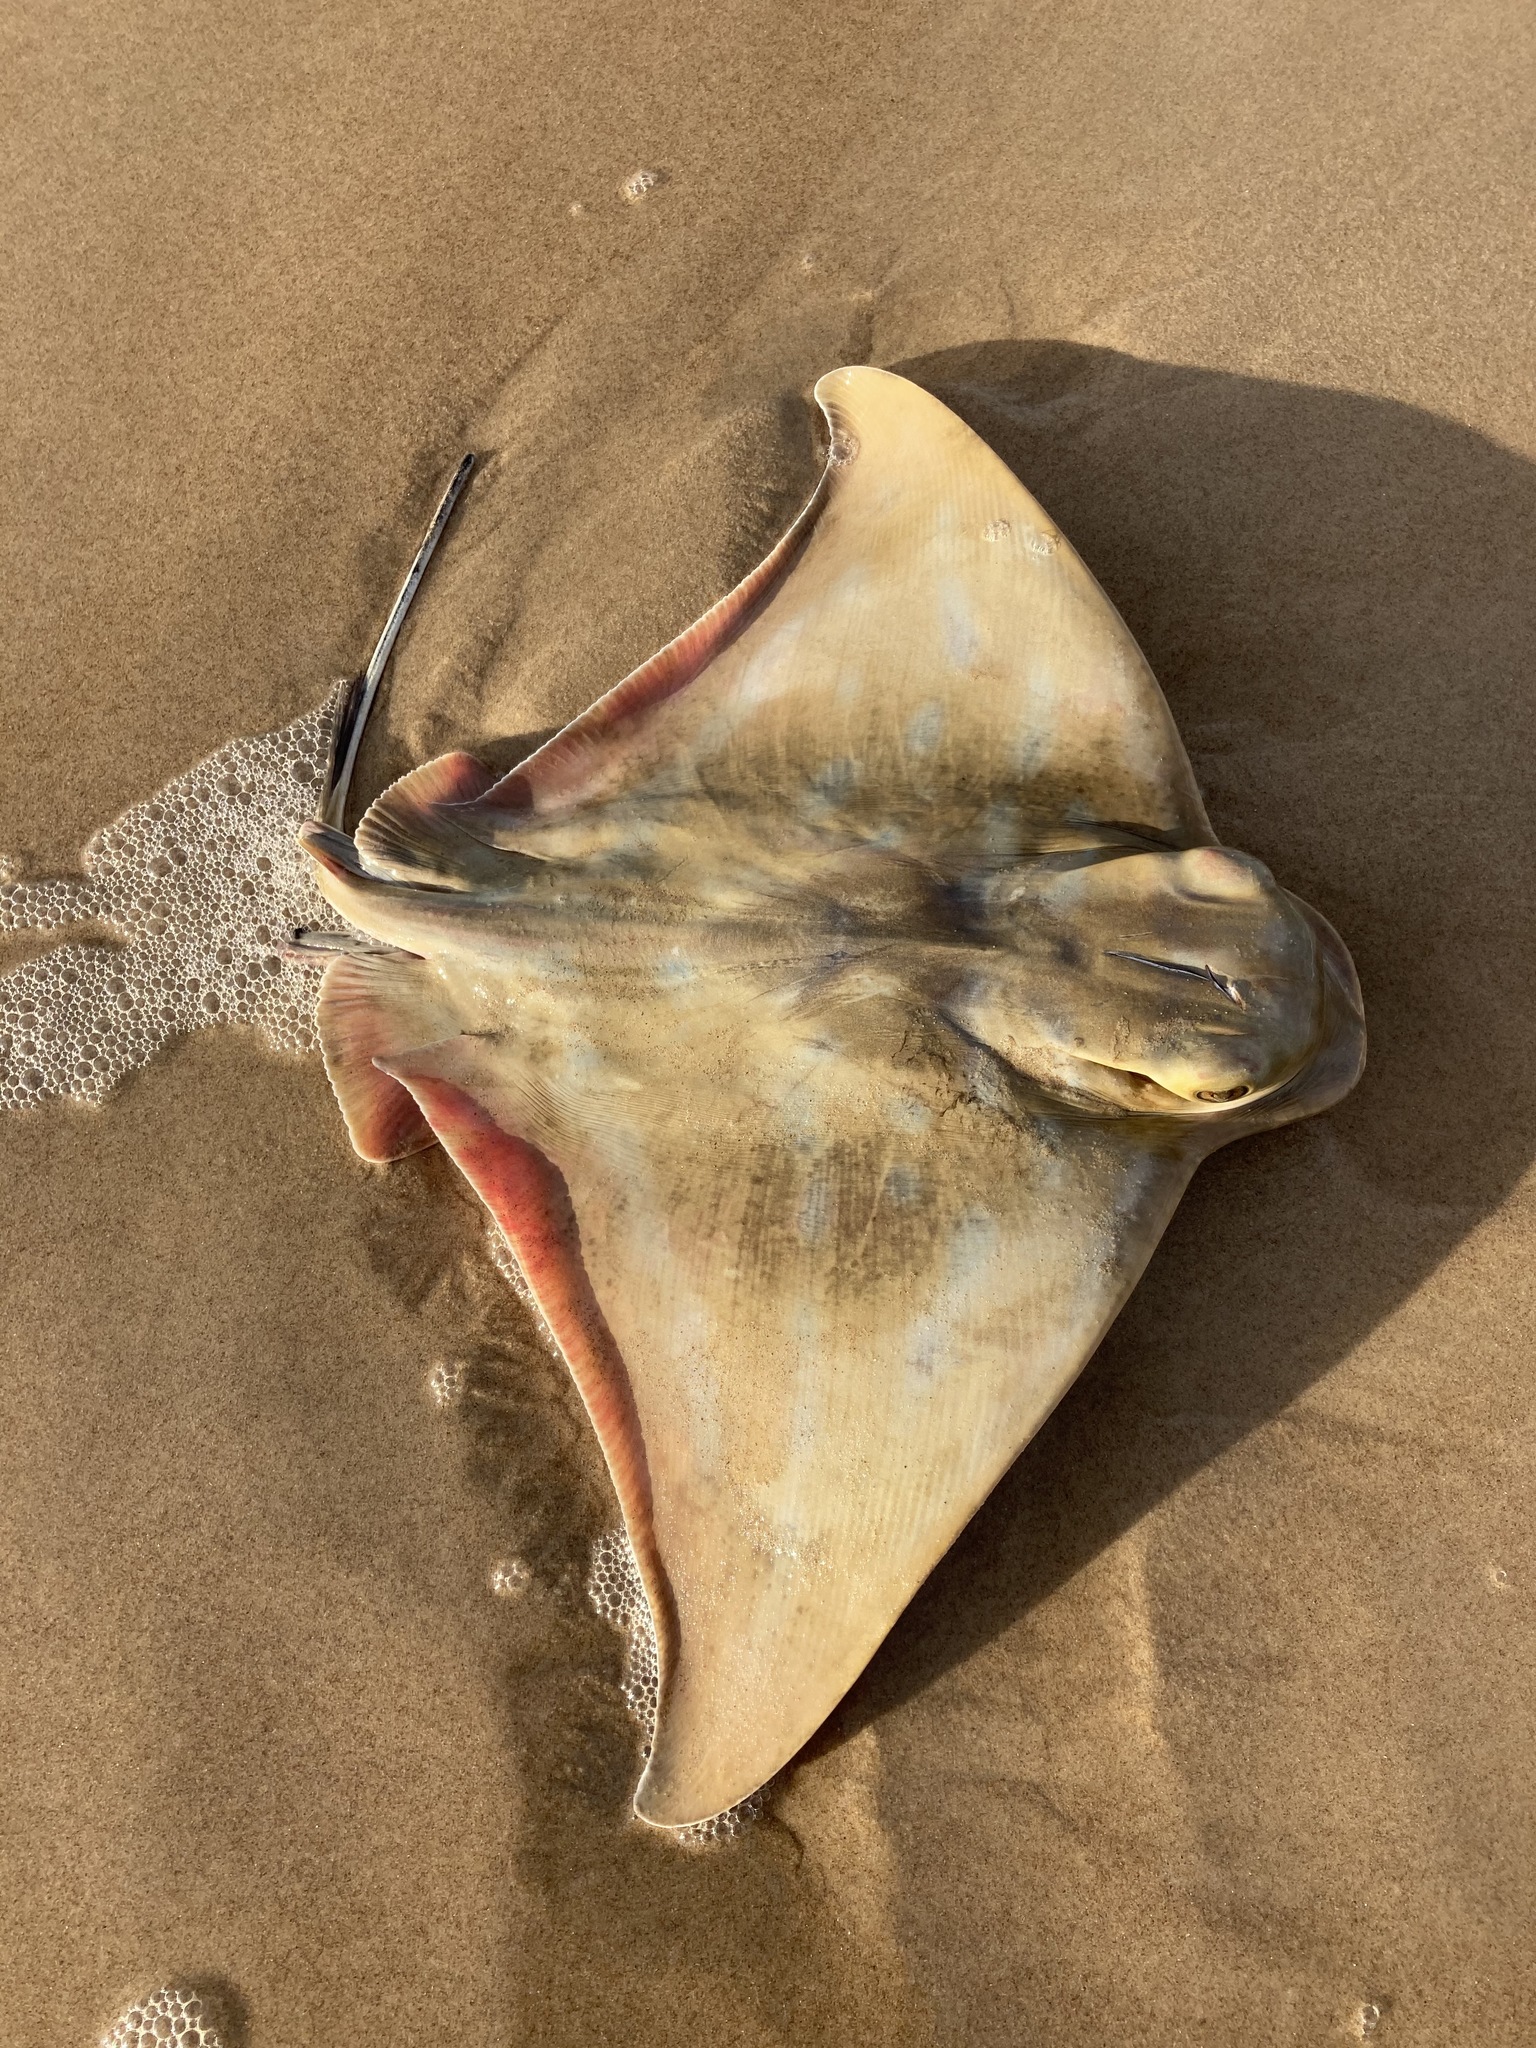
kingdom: Animalia
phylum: Chordata
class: Elasmobranchii
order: Myliobatiformes
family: Myliobatidae
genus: Myliobatis
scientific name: Myliobatis tenuicaudatus
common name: Eagle ray
